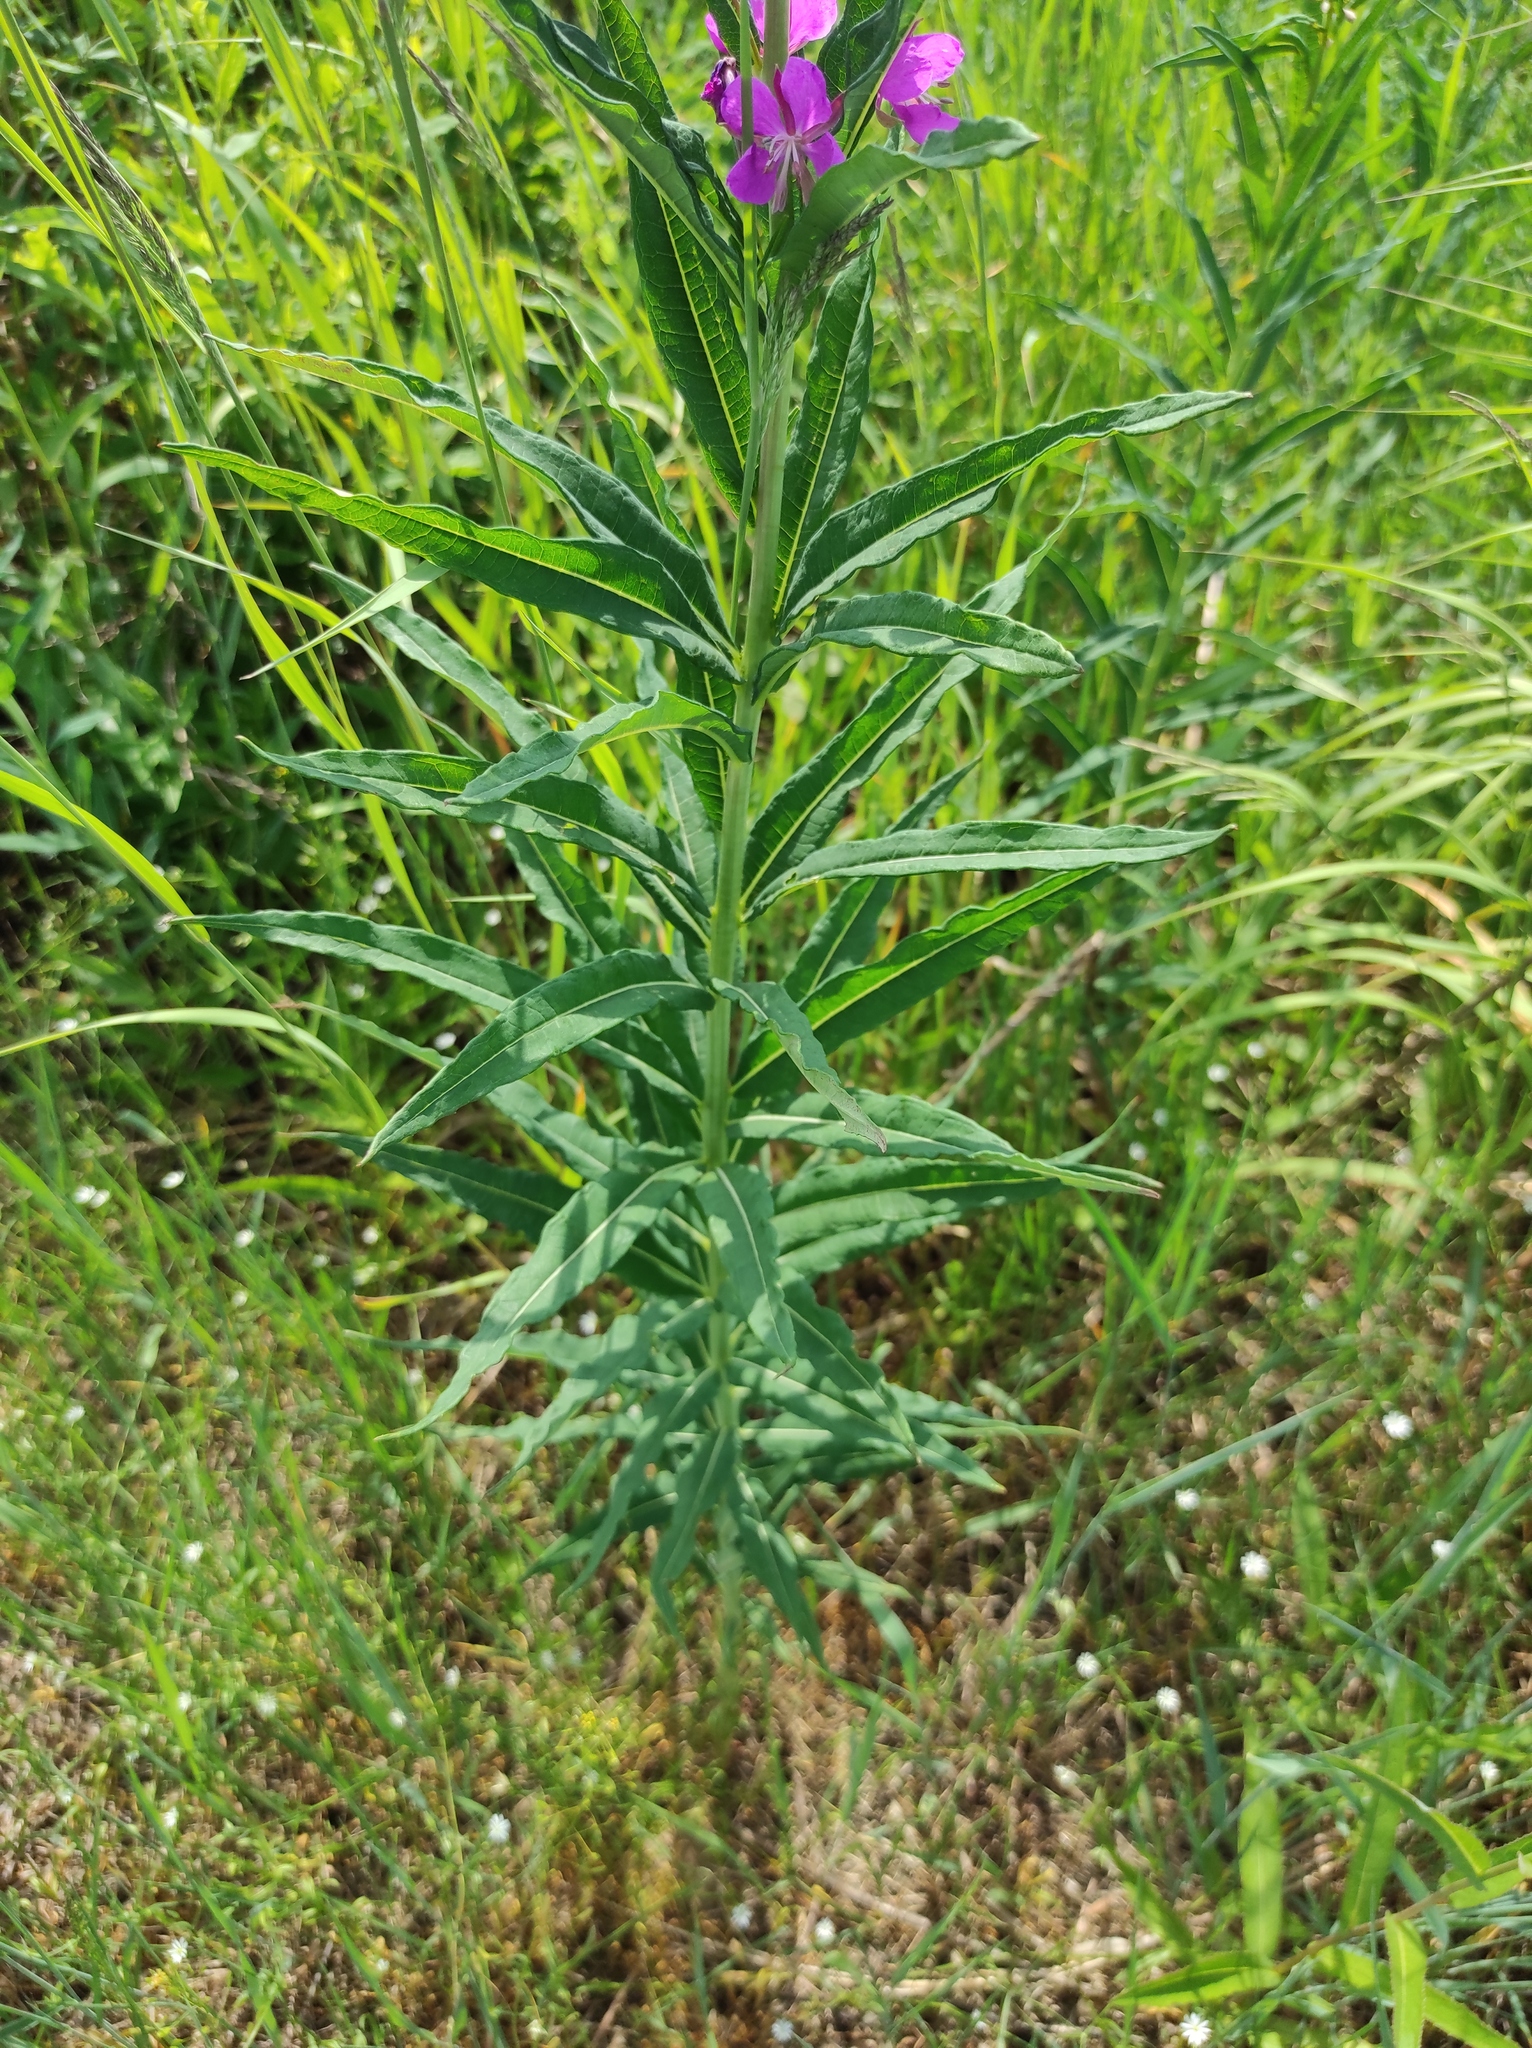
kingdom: Plantae
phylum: Tracheophyta
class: Magnoliopsida
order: Myrtales
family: Onagraceae
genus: Chamaenerion
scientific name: Chamaenerion angustifolium
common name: Fireweed
